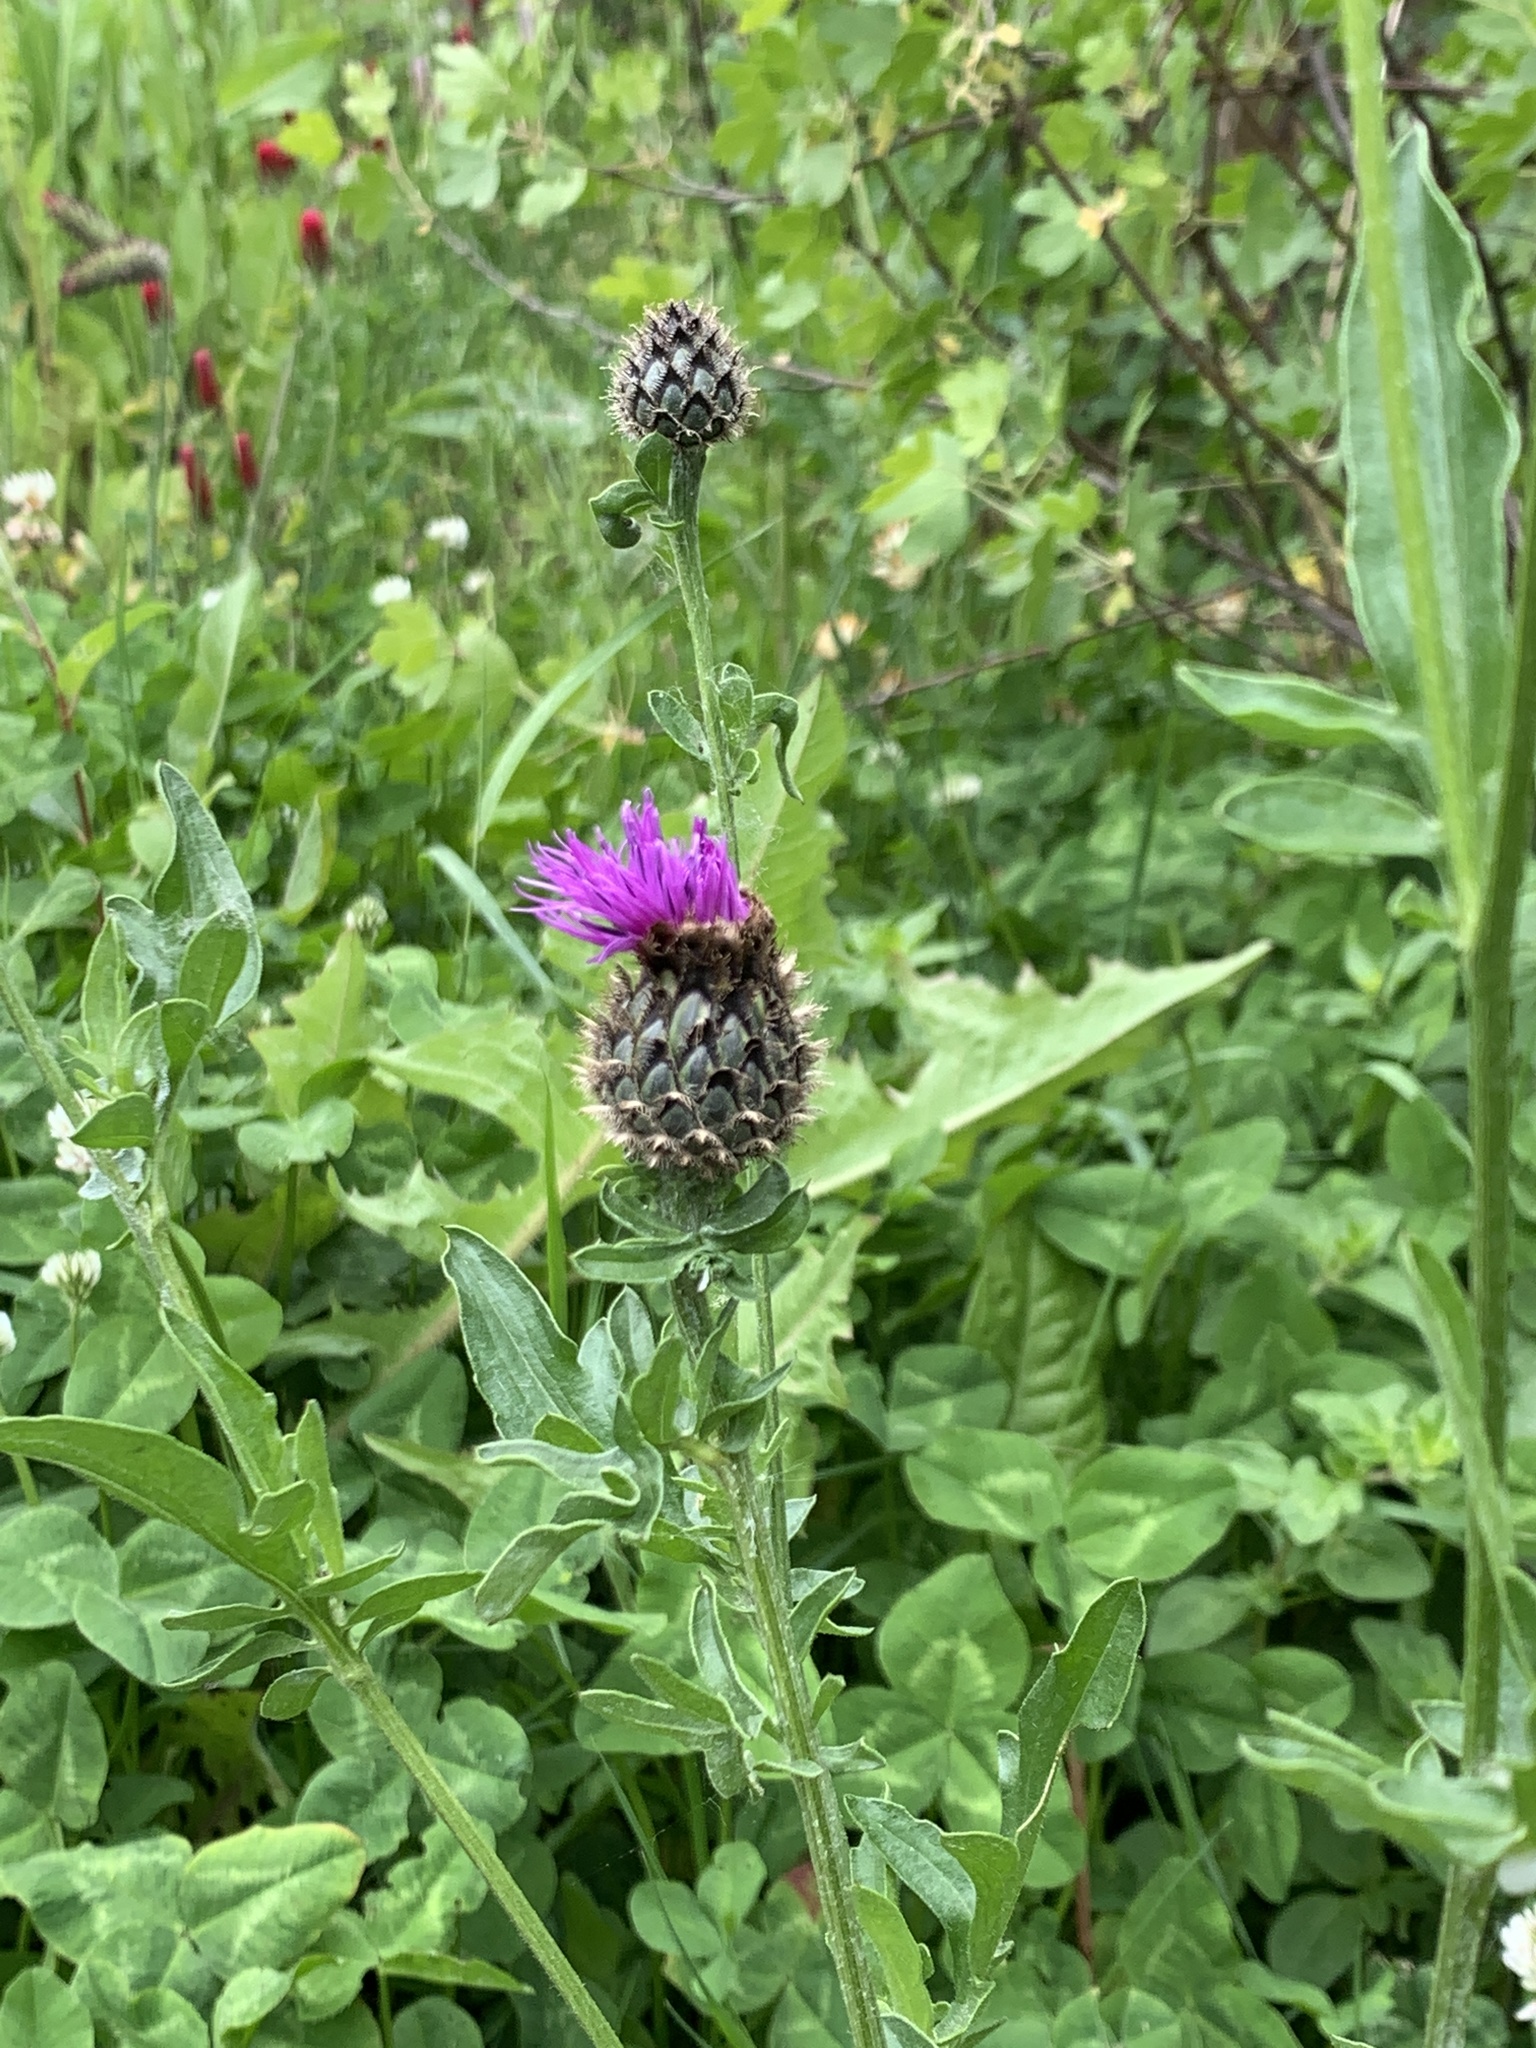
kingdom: Plantae
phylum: Tracheophyta
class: Magnoliopsida
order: Asterales
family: Asteraceae
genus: Centaurea
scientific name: Centaurea scabiosa
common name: Greater knapweed
